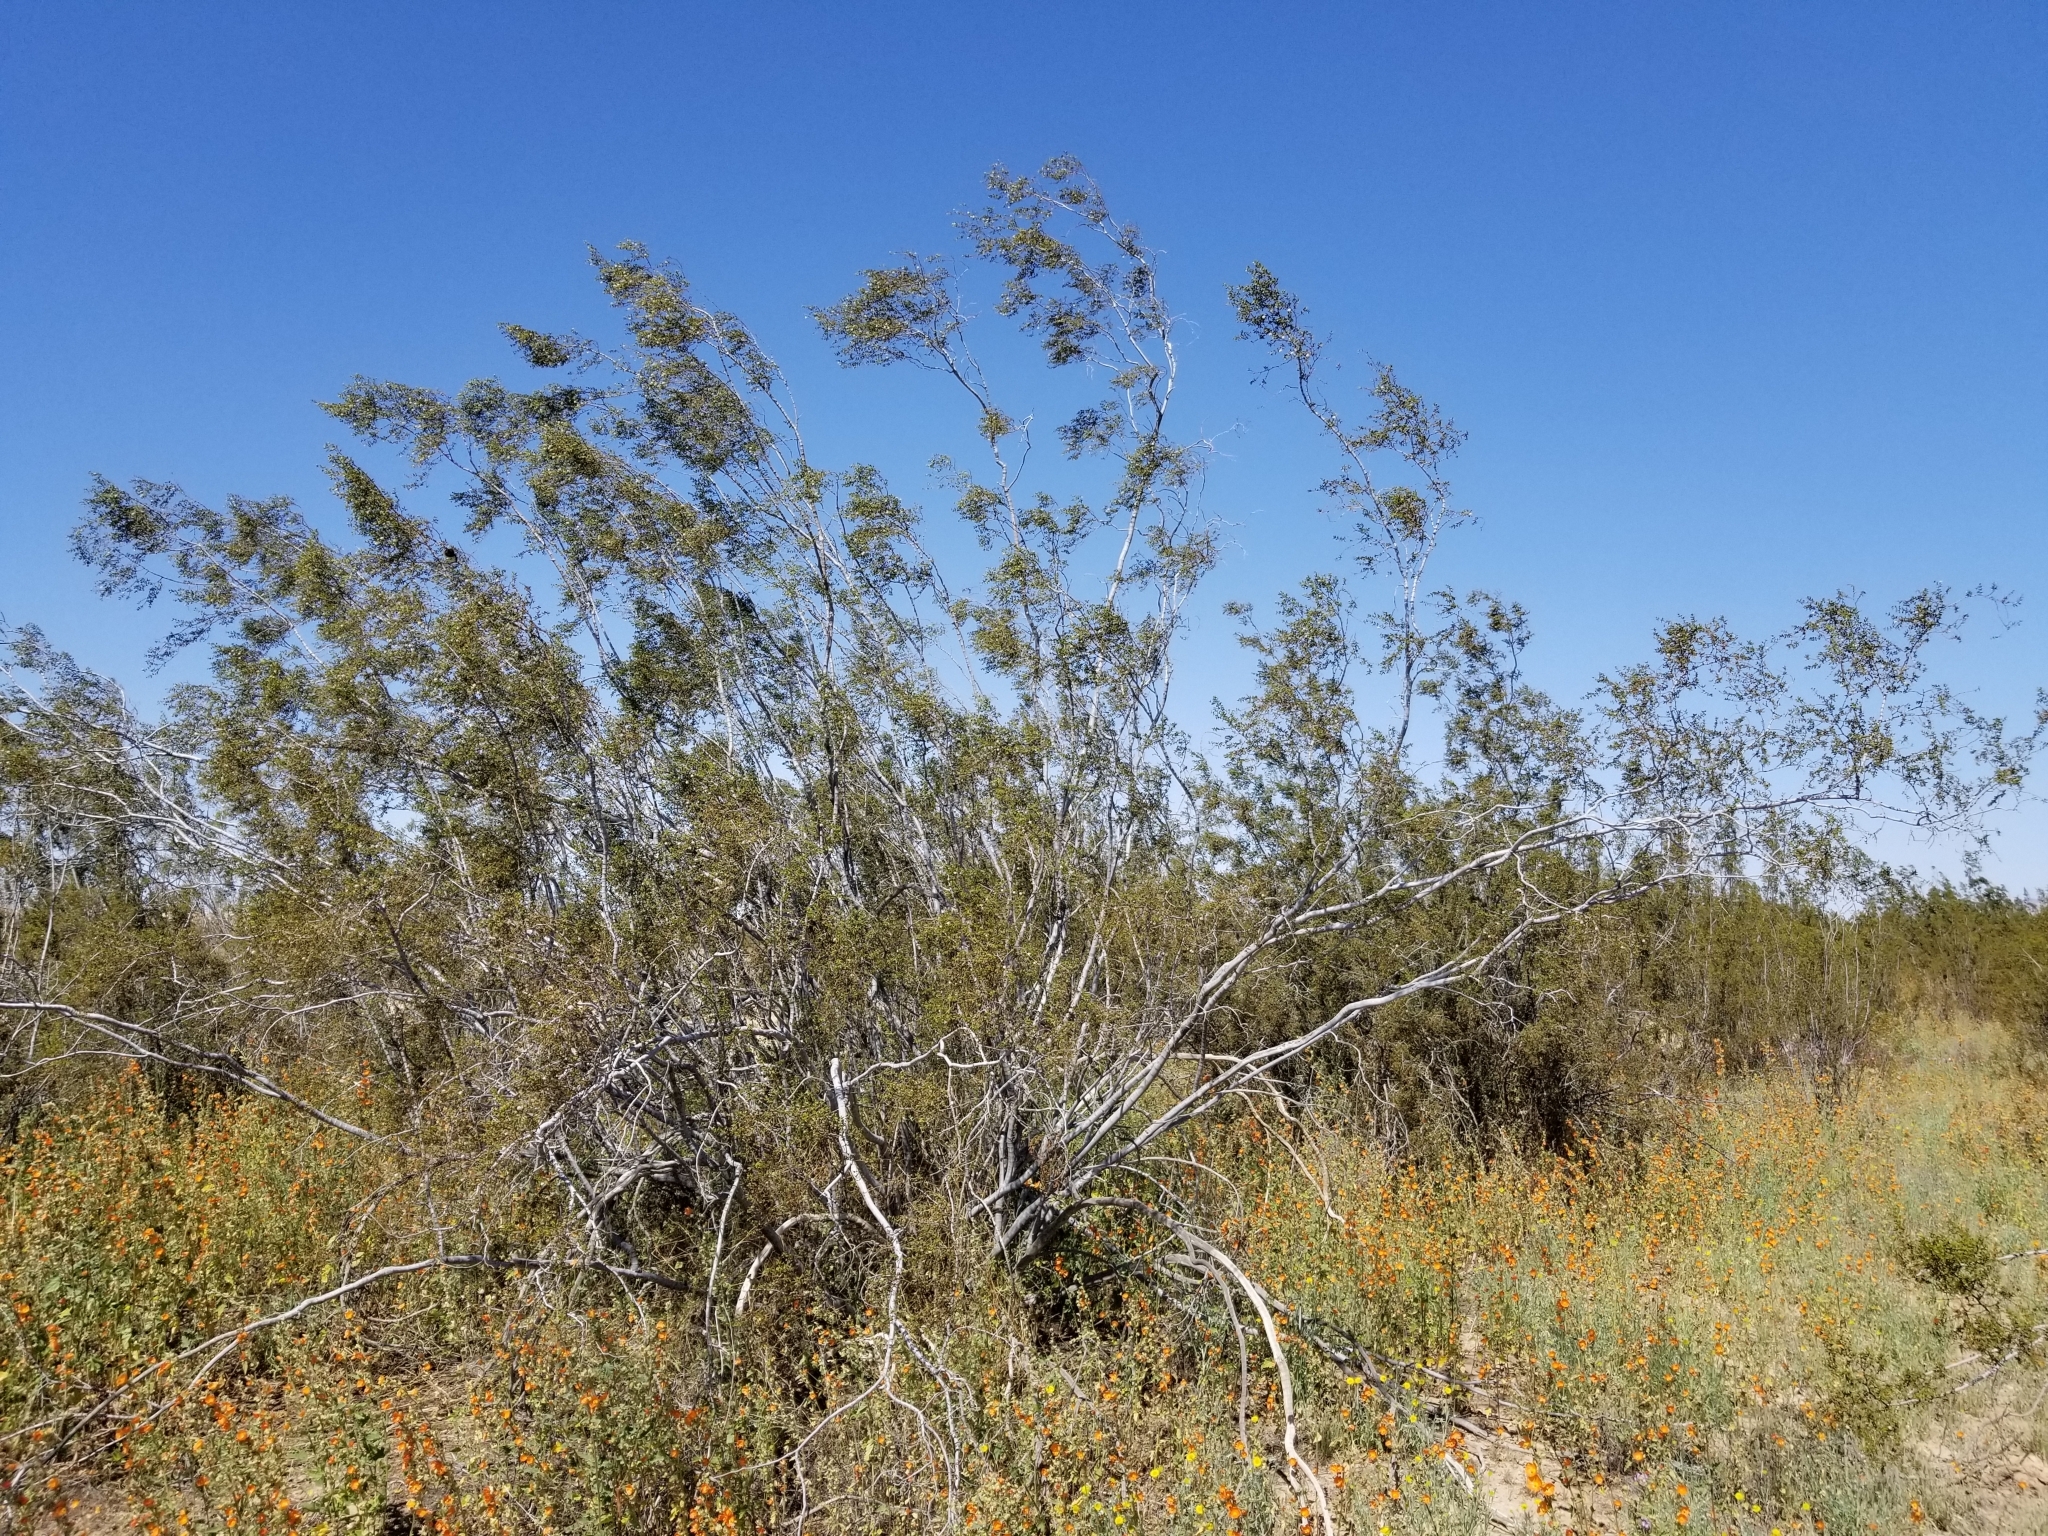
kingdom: Plantae
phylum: Tracheophyta
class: Magnoliopsida
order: Zygophyllales
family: Zygophyllaceae
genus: Larrea
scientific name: Larrea tridentata
